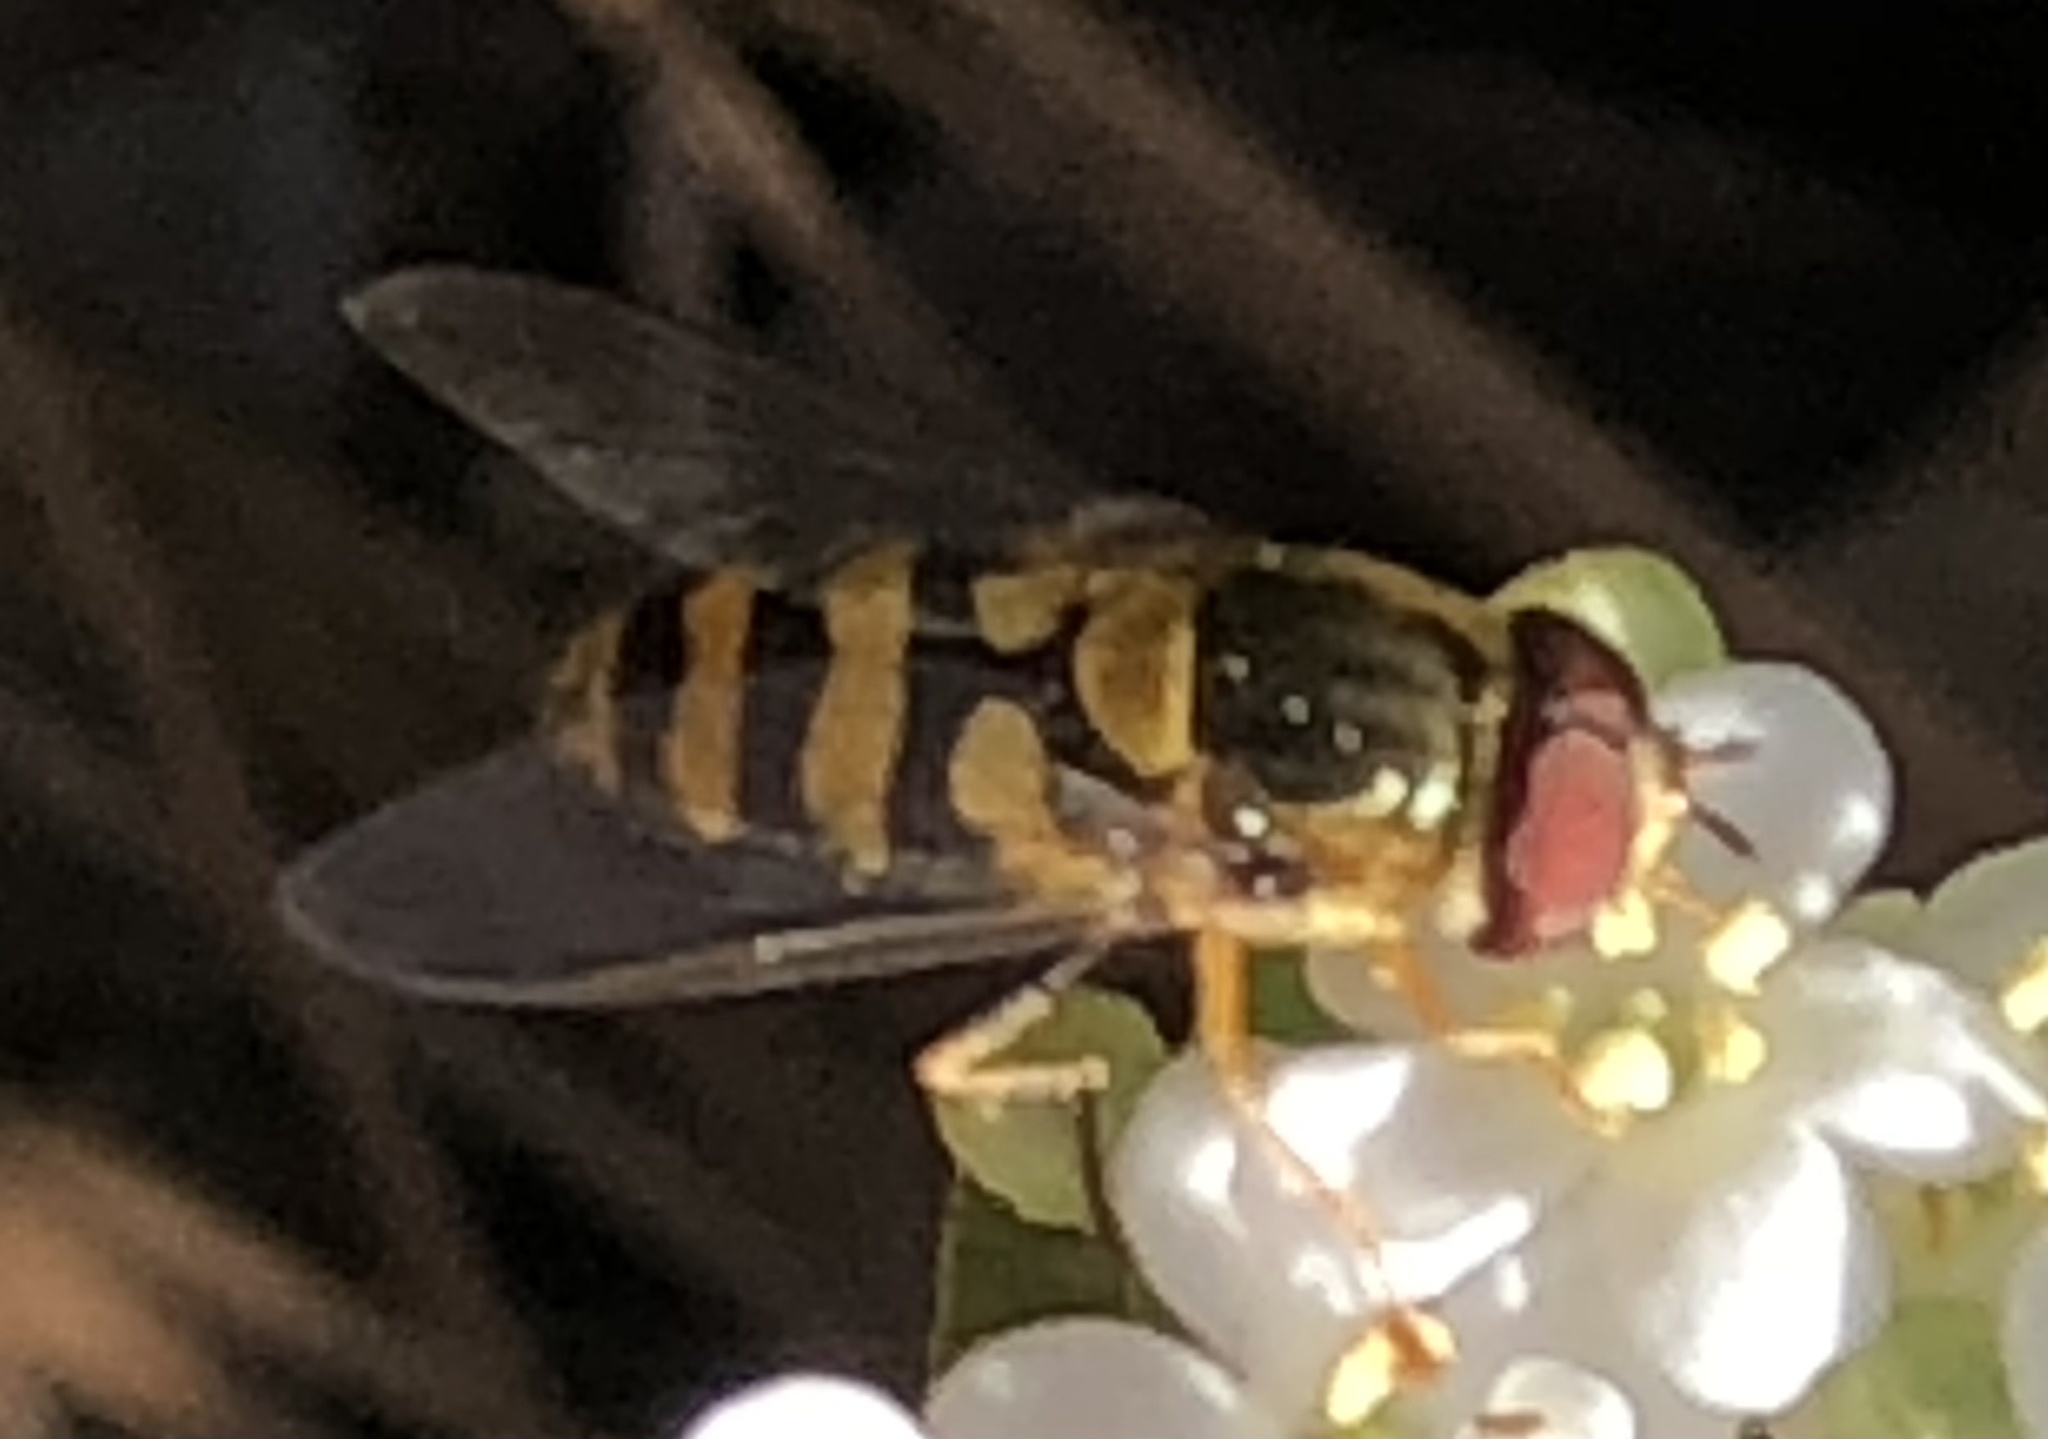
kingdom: Animalia
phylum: Arthropoda
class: Insecta
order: Diptera
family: Syrphidae
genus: Syrphus
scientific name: Syrphus
